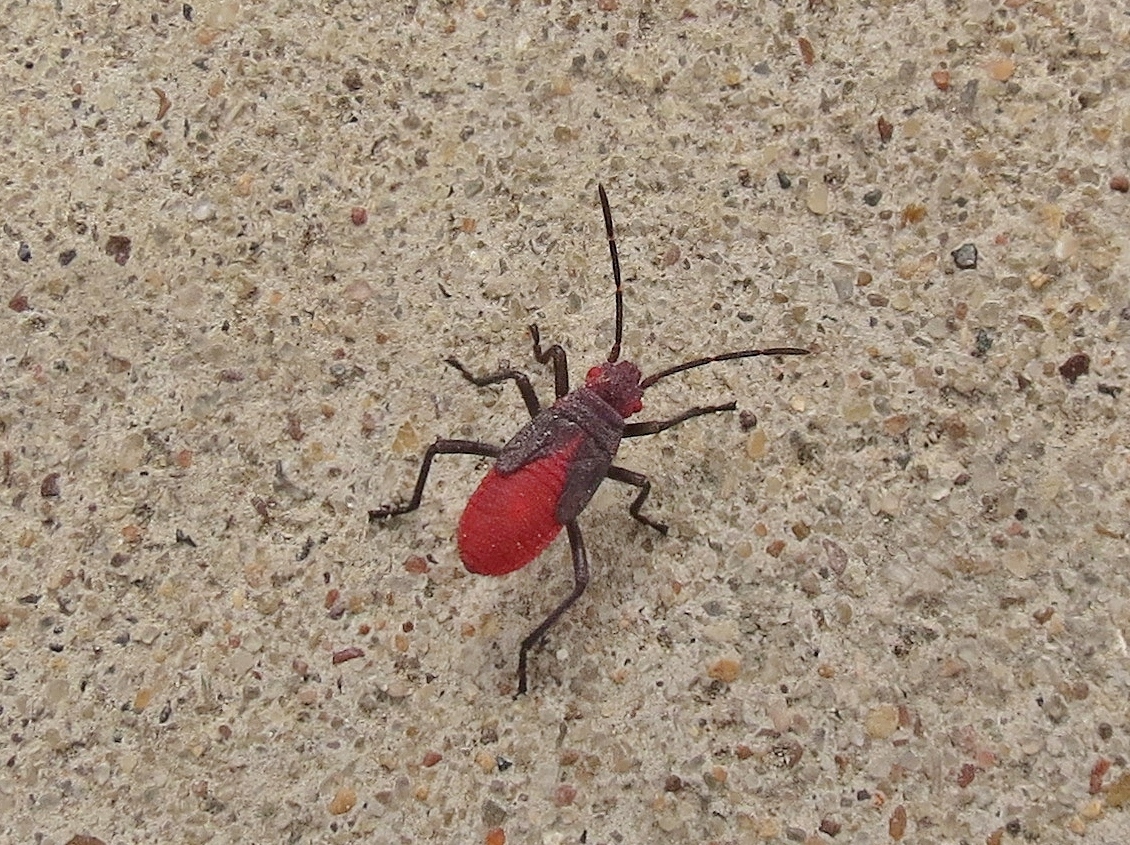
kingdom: Animalia
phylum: Arthropoda
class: Insecta
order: Hemiptera
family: Rhopalidae
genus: Jadera
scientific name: Jadera haematoloma
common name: Red-shouldered bug
